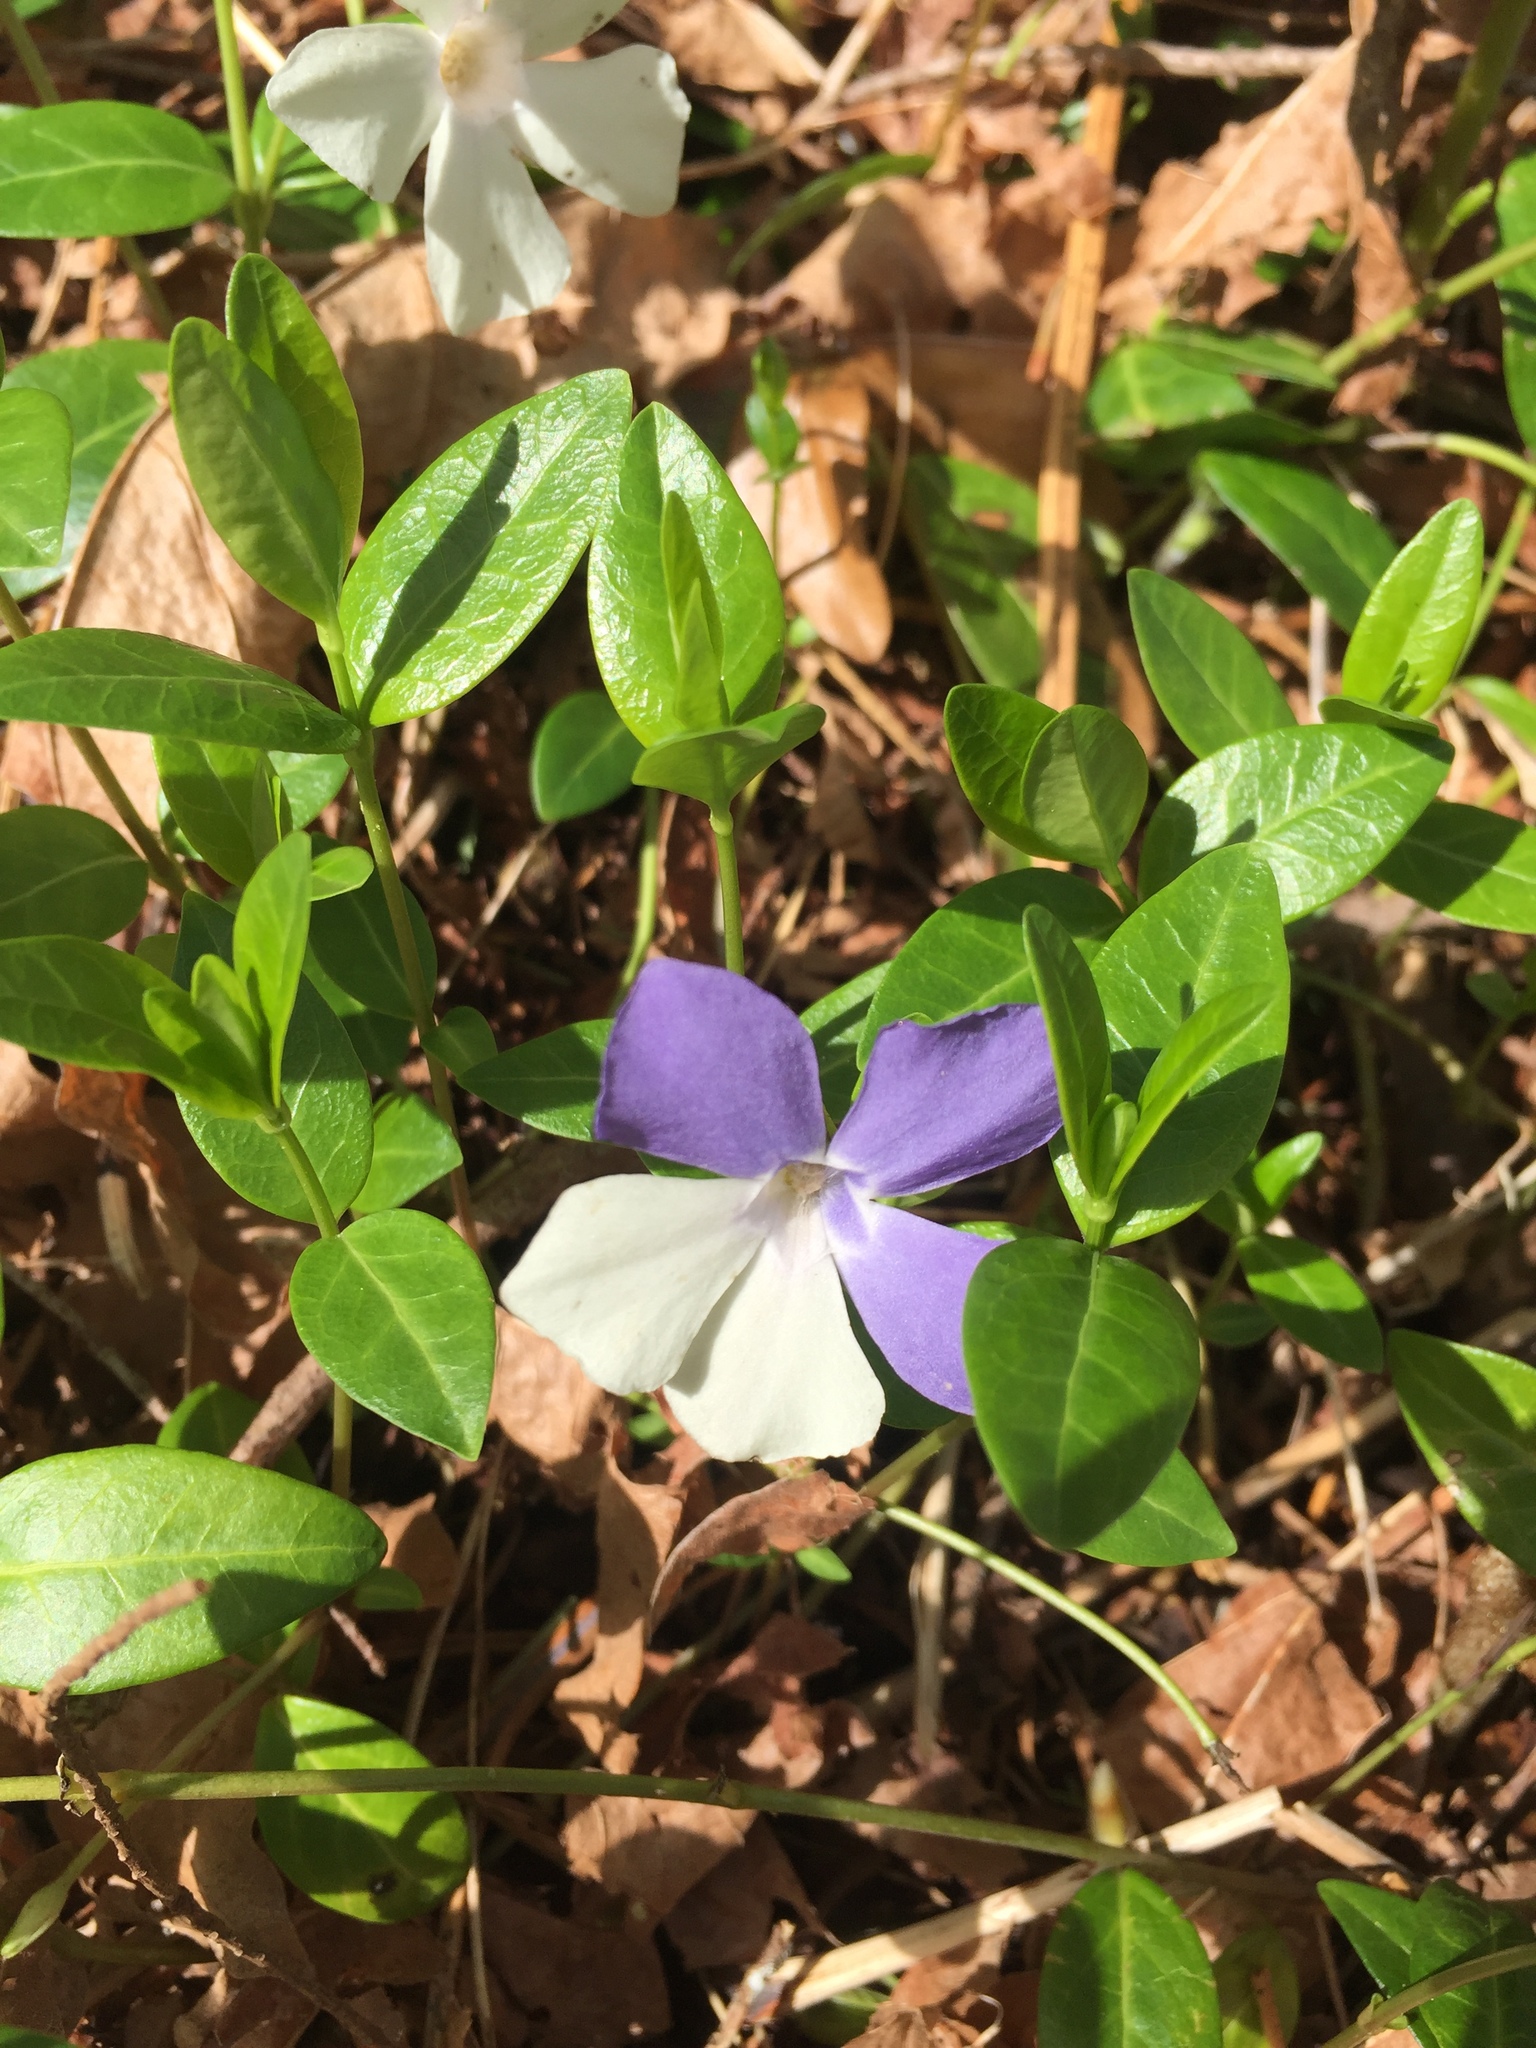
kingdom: Plantae
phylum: Tracheophyta
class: Magnoliopsida
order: Gentianales
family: Apocynaceae
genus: Vinca
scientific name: Vinca minor
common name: Lesser periwinkle
